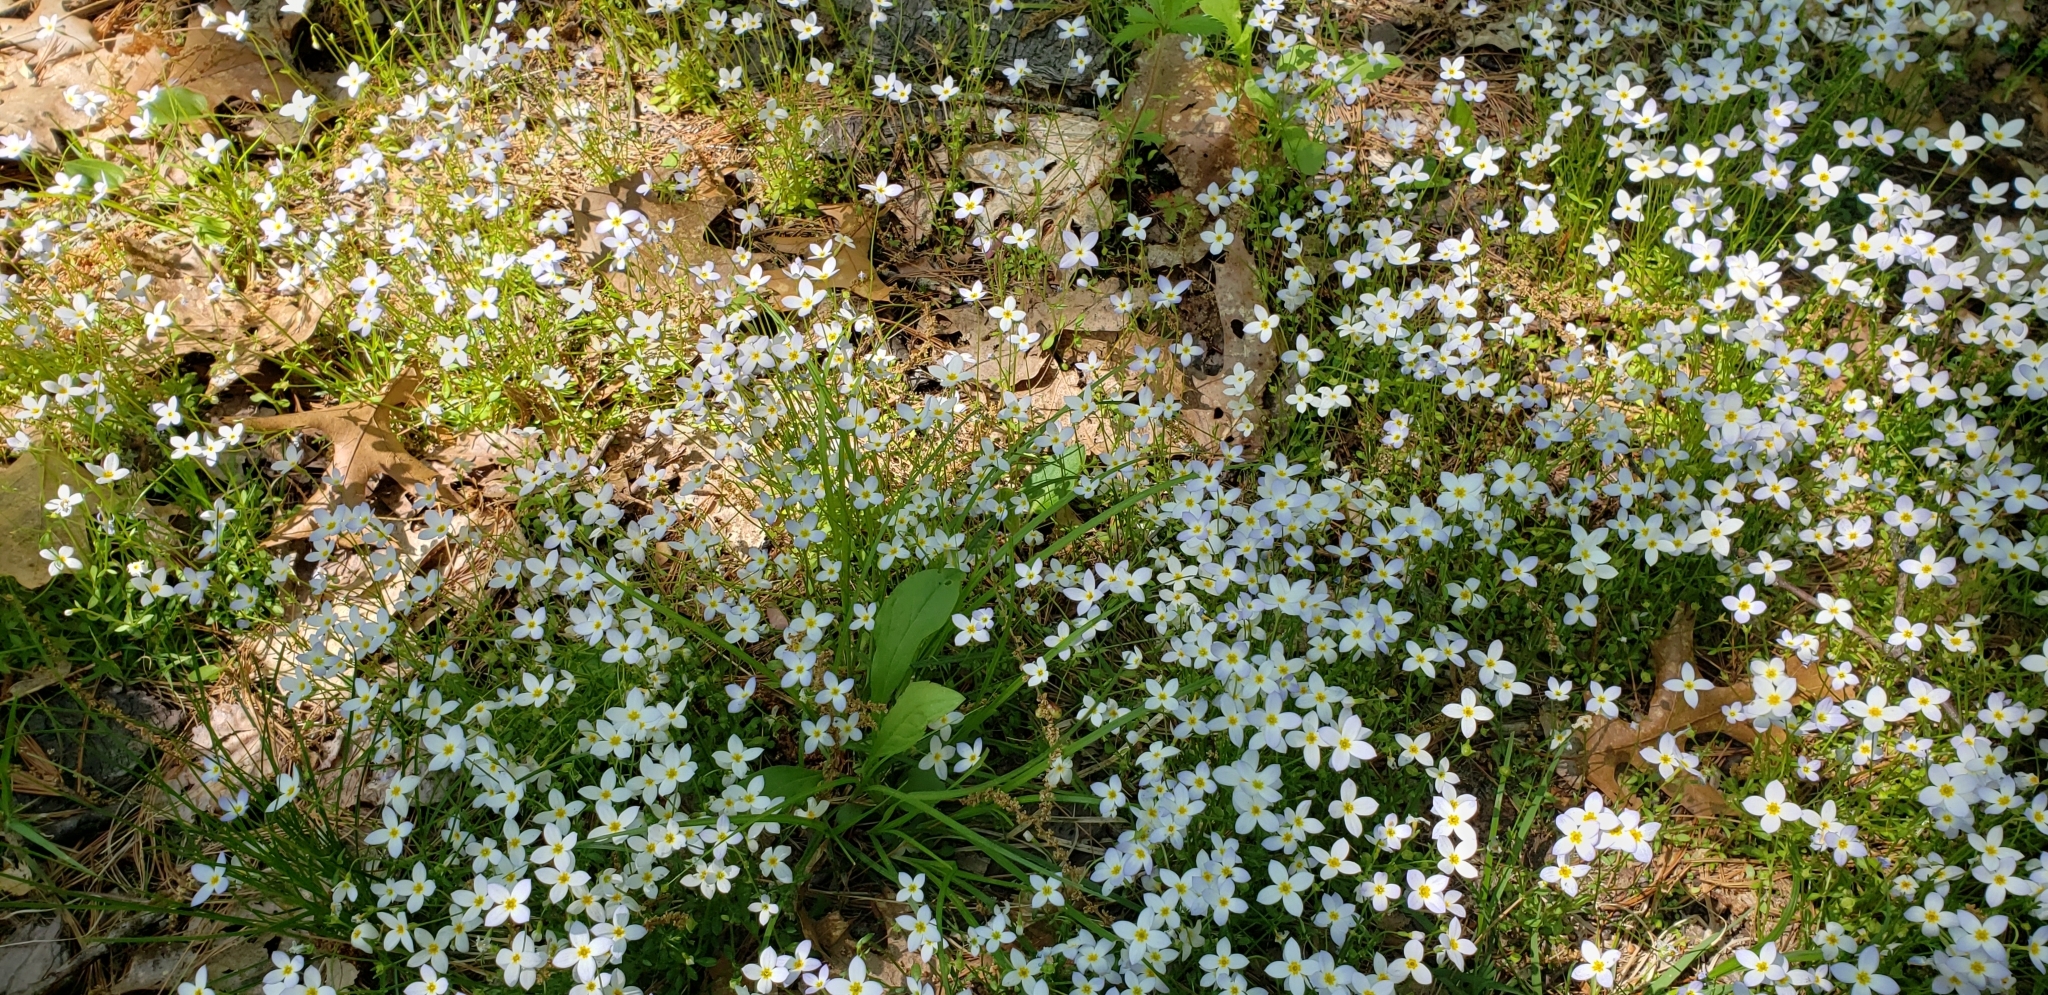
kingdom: Plantae
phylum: Tracheophyta
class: Magnoliopsida
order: Gentianales
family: Rubiaceae
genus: Houstonia
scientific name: Houstonia caerulea
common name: Bluets
